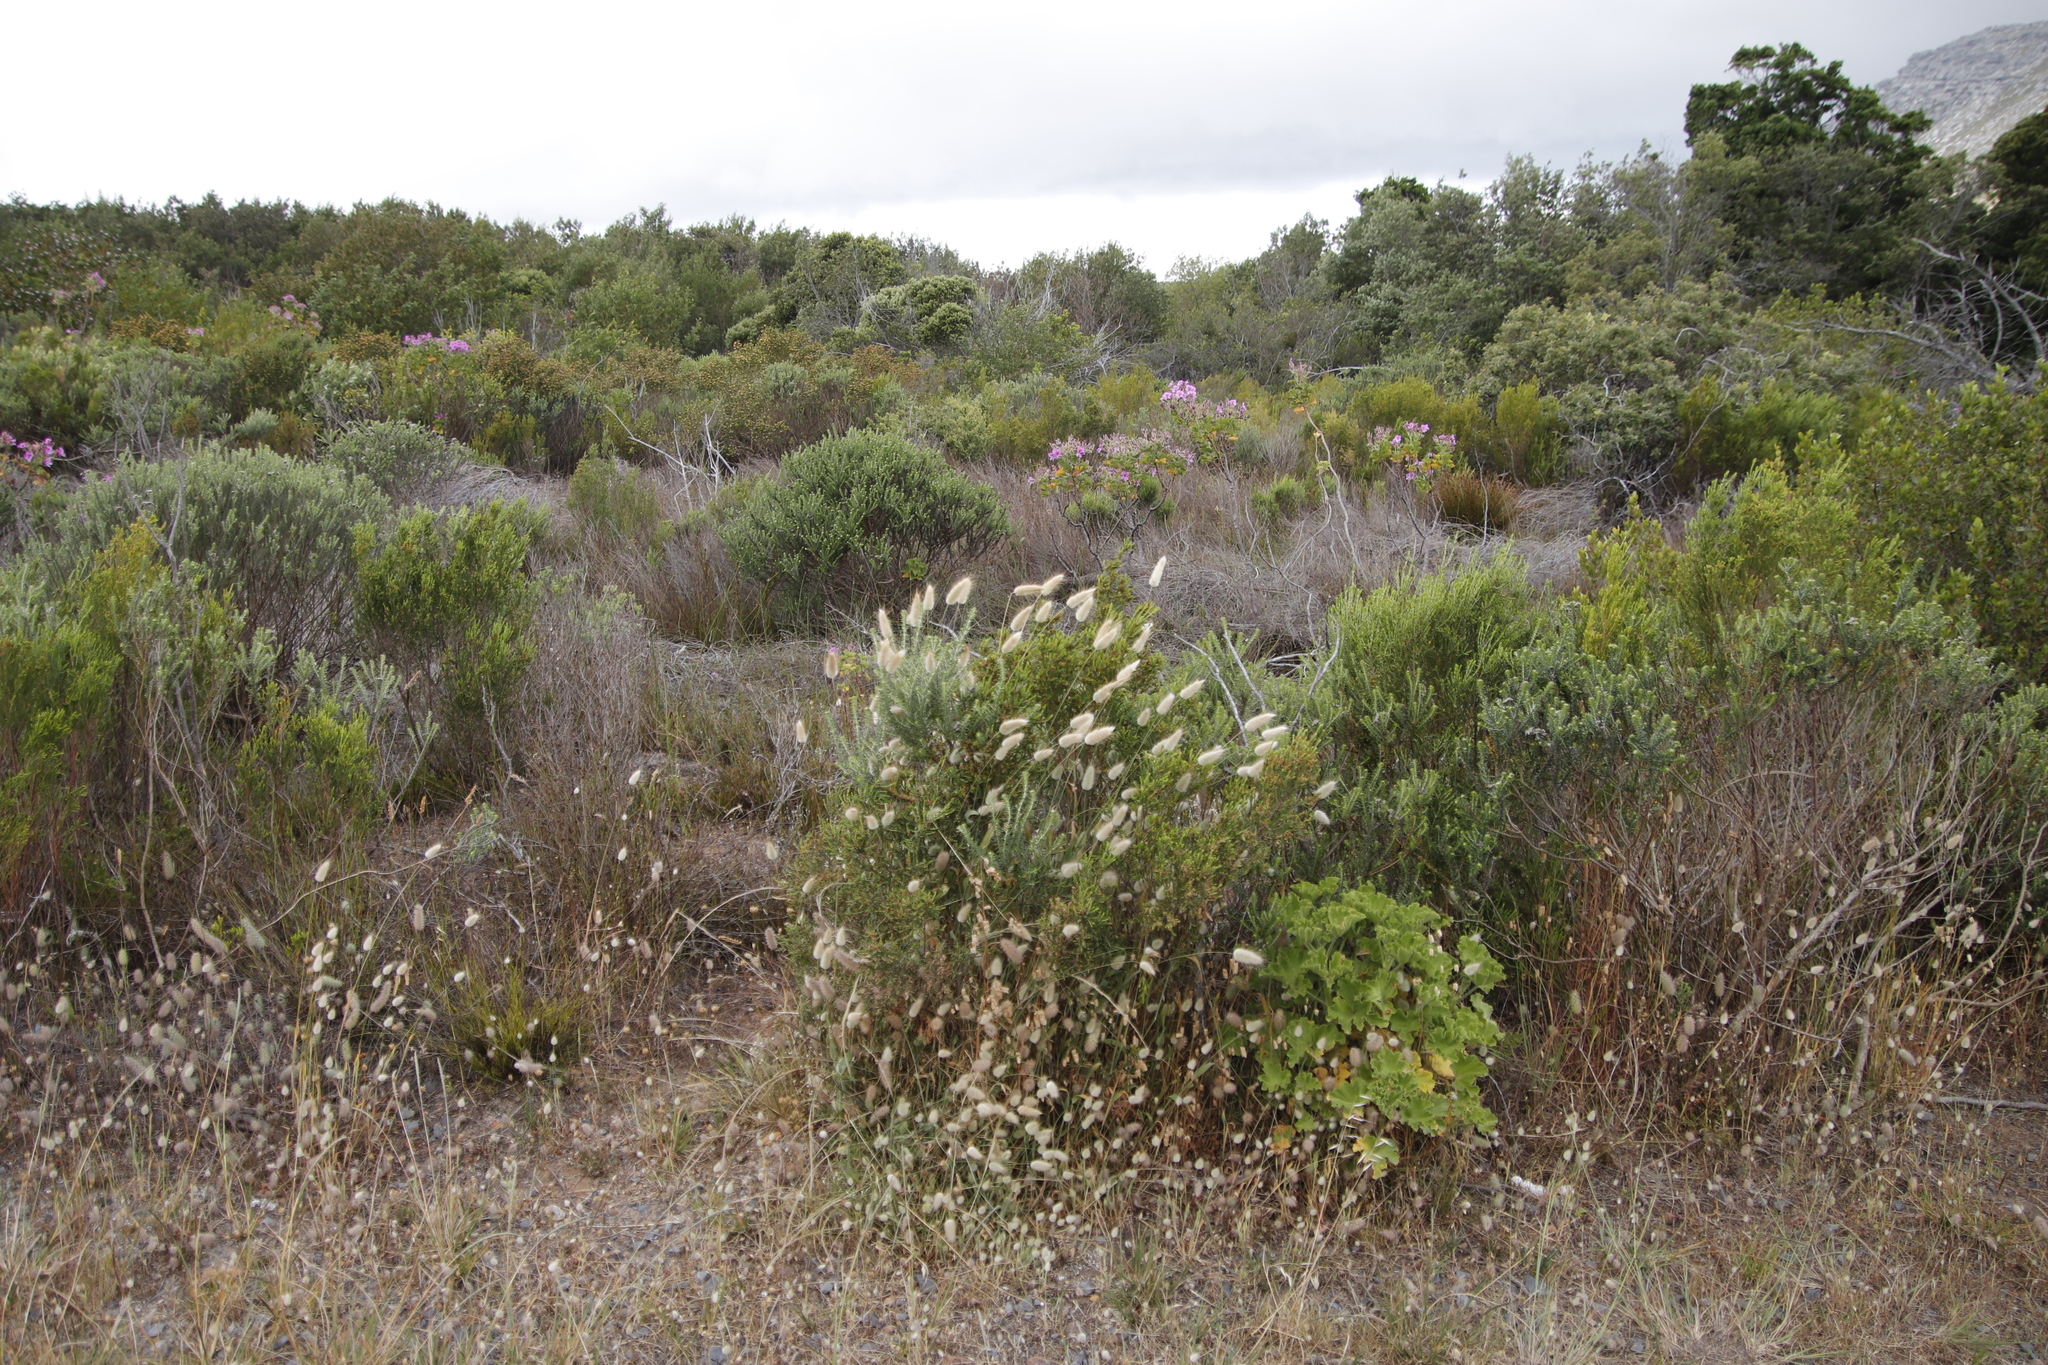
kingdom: Plantae
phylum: Tracheophyta
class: Liliopsida
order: Poales
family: Poaceae
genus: Lagurus
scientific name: Lagurus ovatus
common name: Hare's-tail
